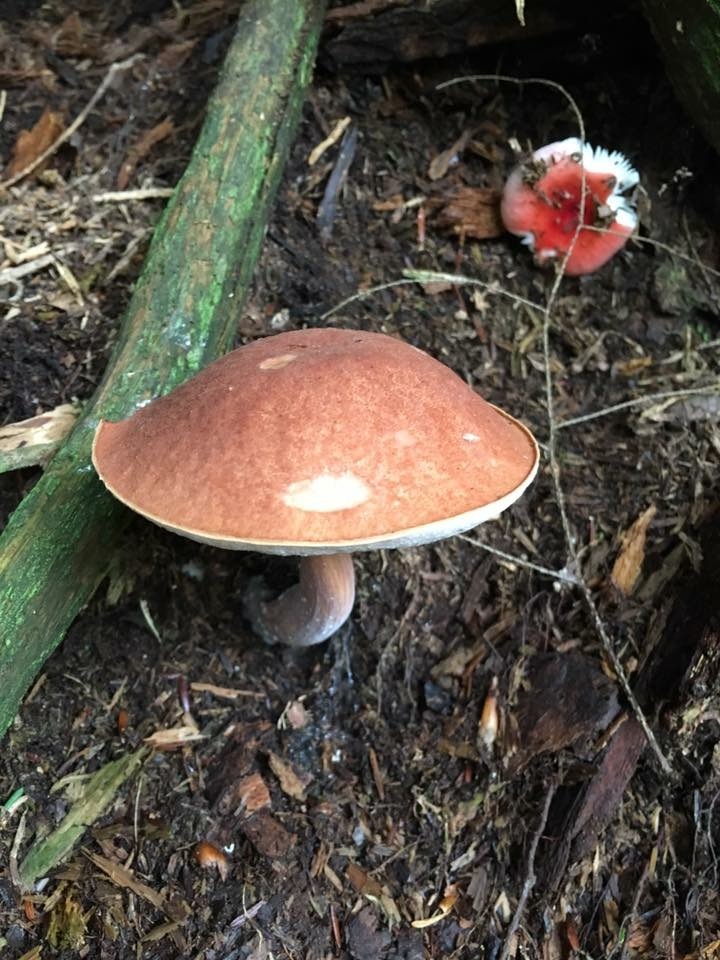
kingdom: Fungi
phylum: Basidiomycota
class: Agaricomycetes
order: Boletales
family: Boletaceae
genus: Austroboletus
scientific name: Austroboletus gracilis
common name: Graceful bolete
